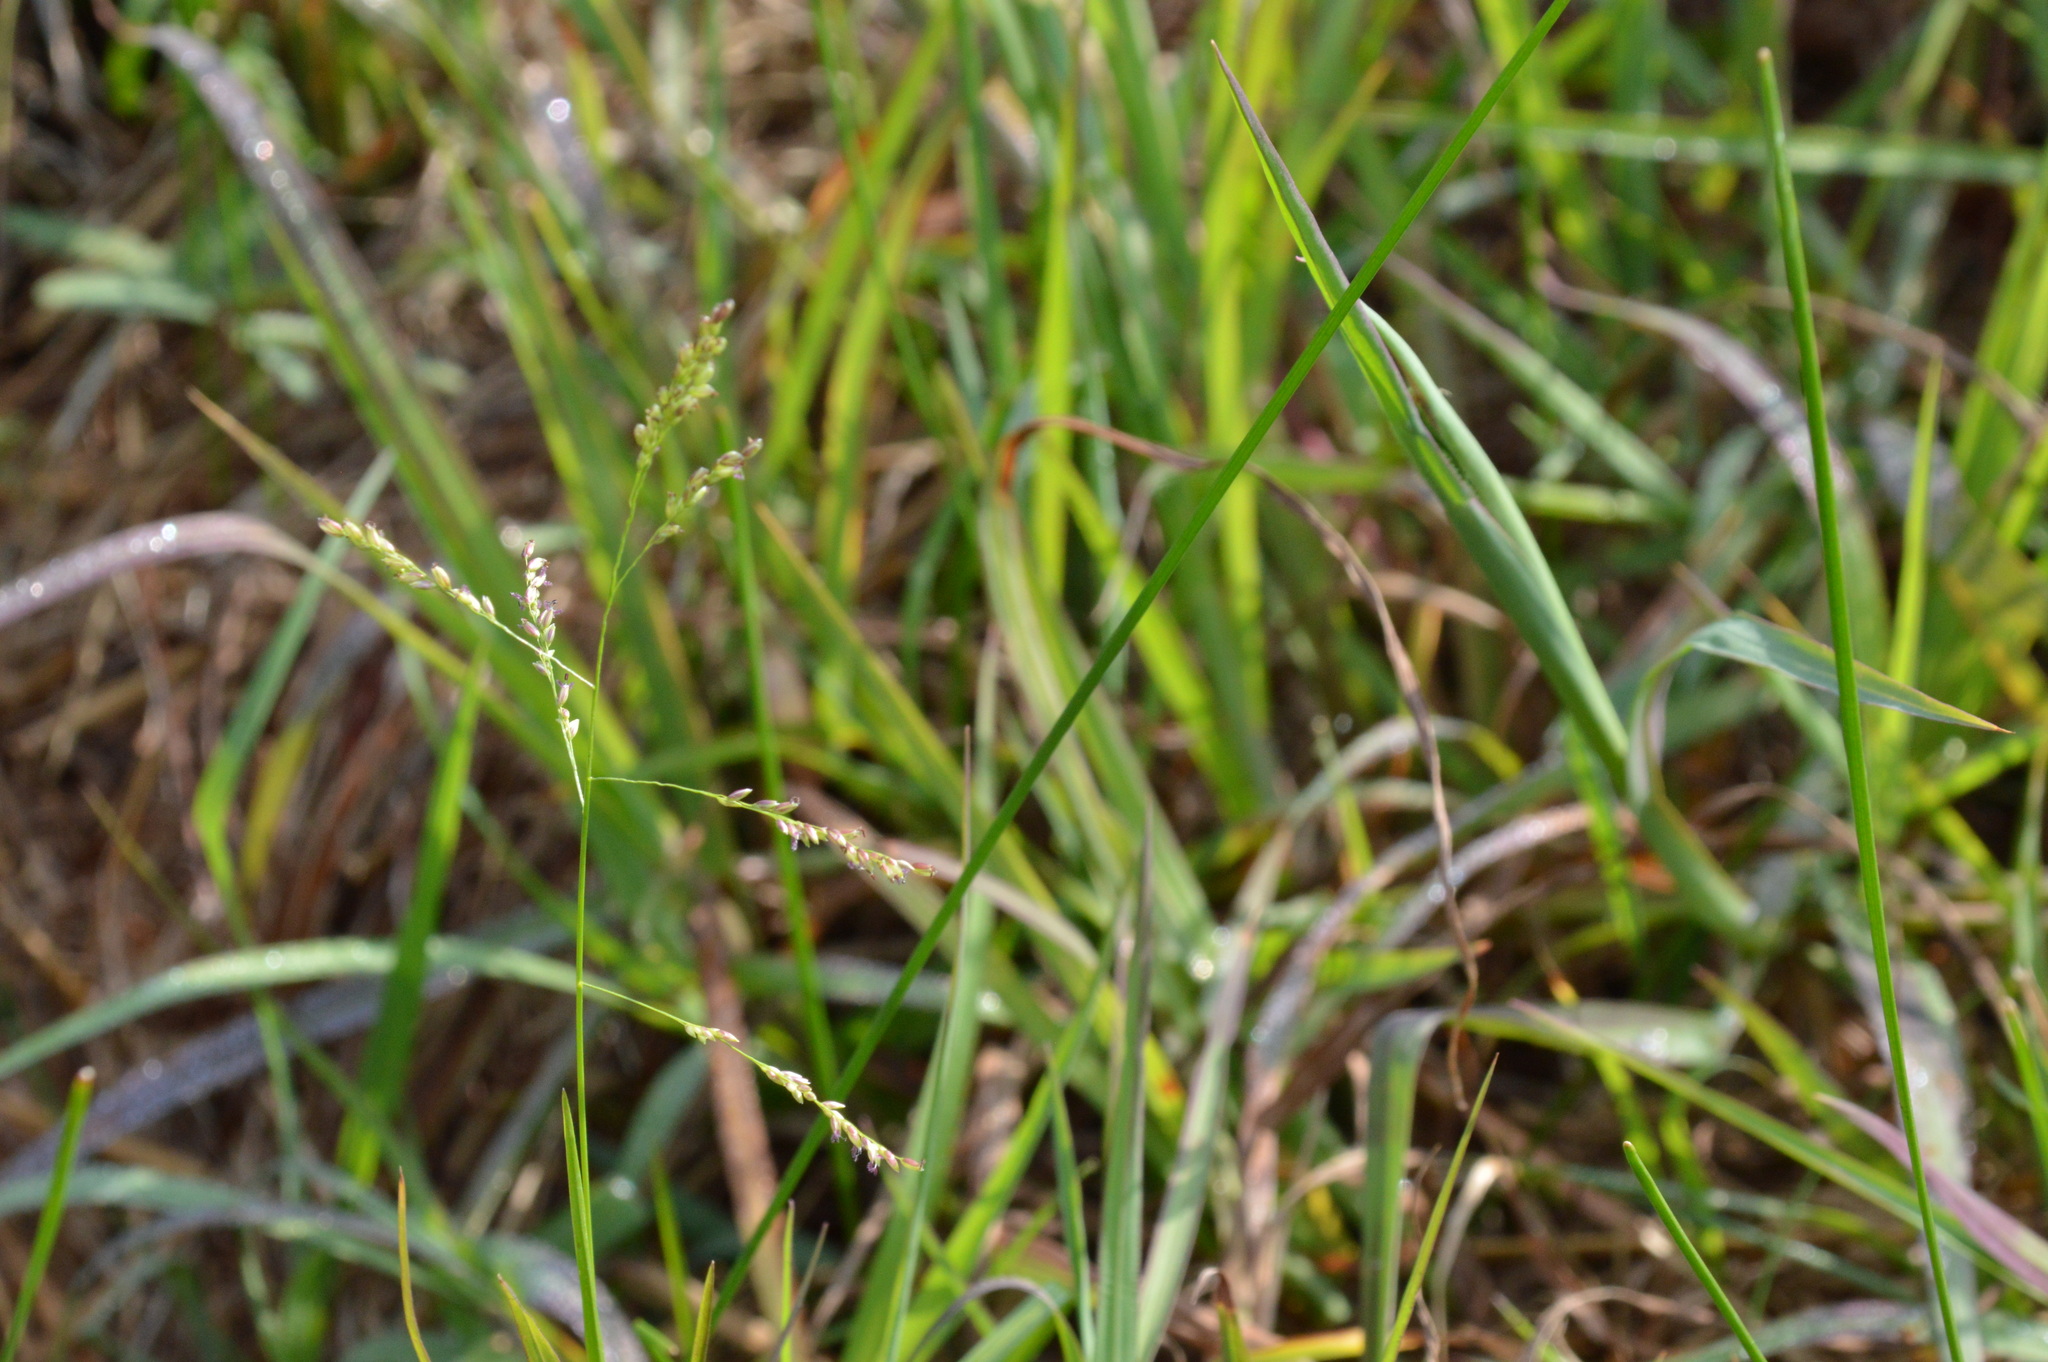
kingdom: Plantae
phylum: Tracheophyta
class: Liliopsida
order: Poales
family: Poaceae
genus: Steinchisma
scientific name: Steinchisma hians
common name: Gaping panic grass
